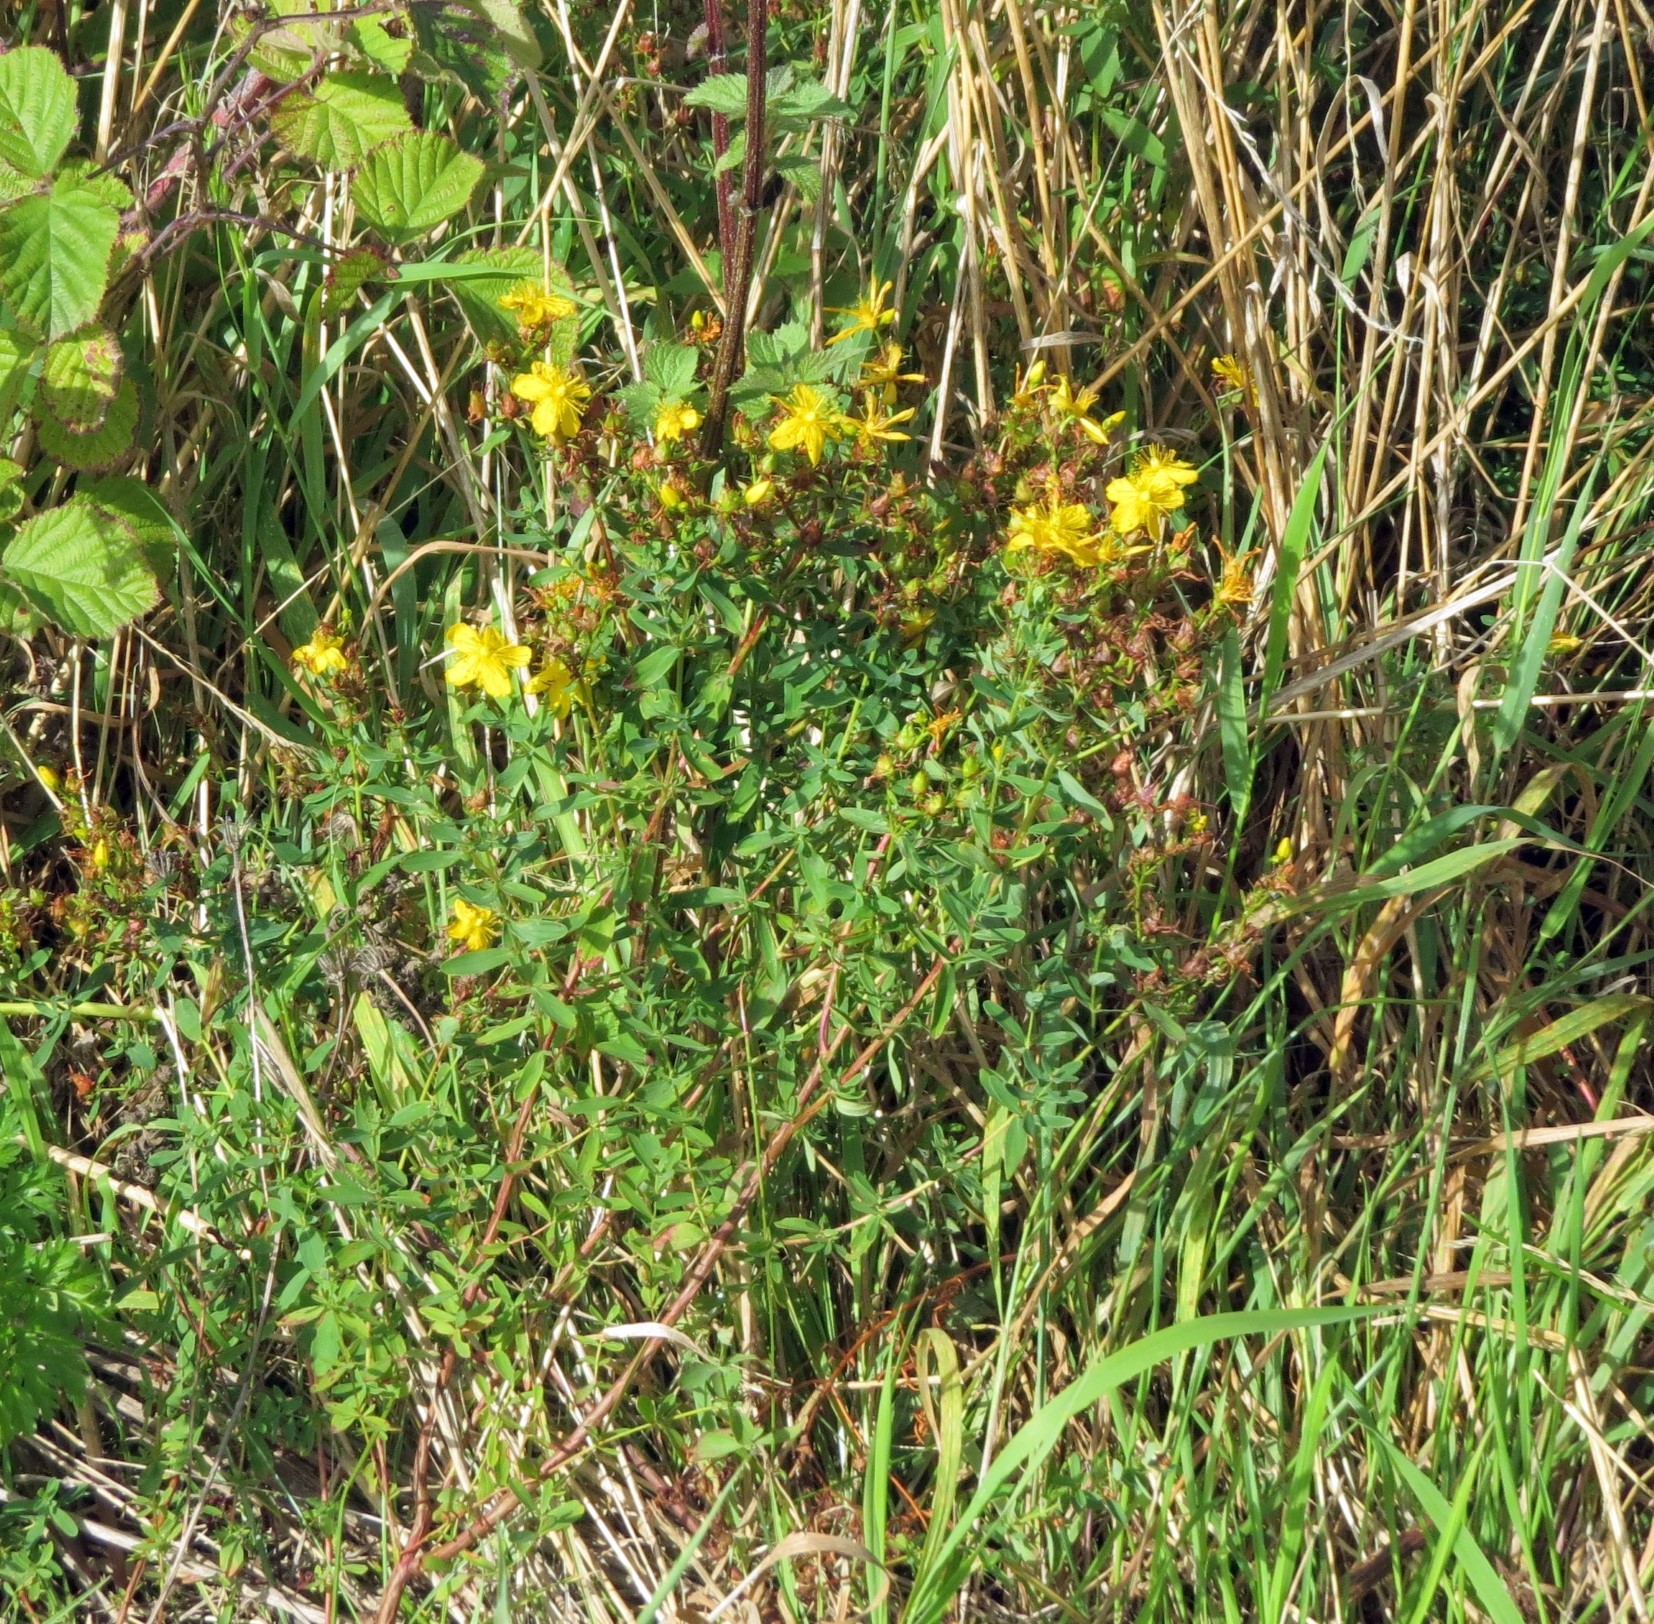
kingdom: Plantae
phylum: Tracheophyta
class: Magnoliopsida
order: Malpighiales
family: Hypericaceae
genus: Hypericum
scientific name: Hypericum perforatum
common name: Common st. johnswort
